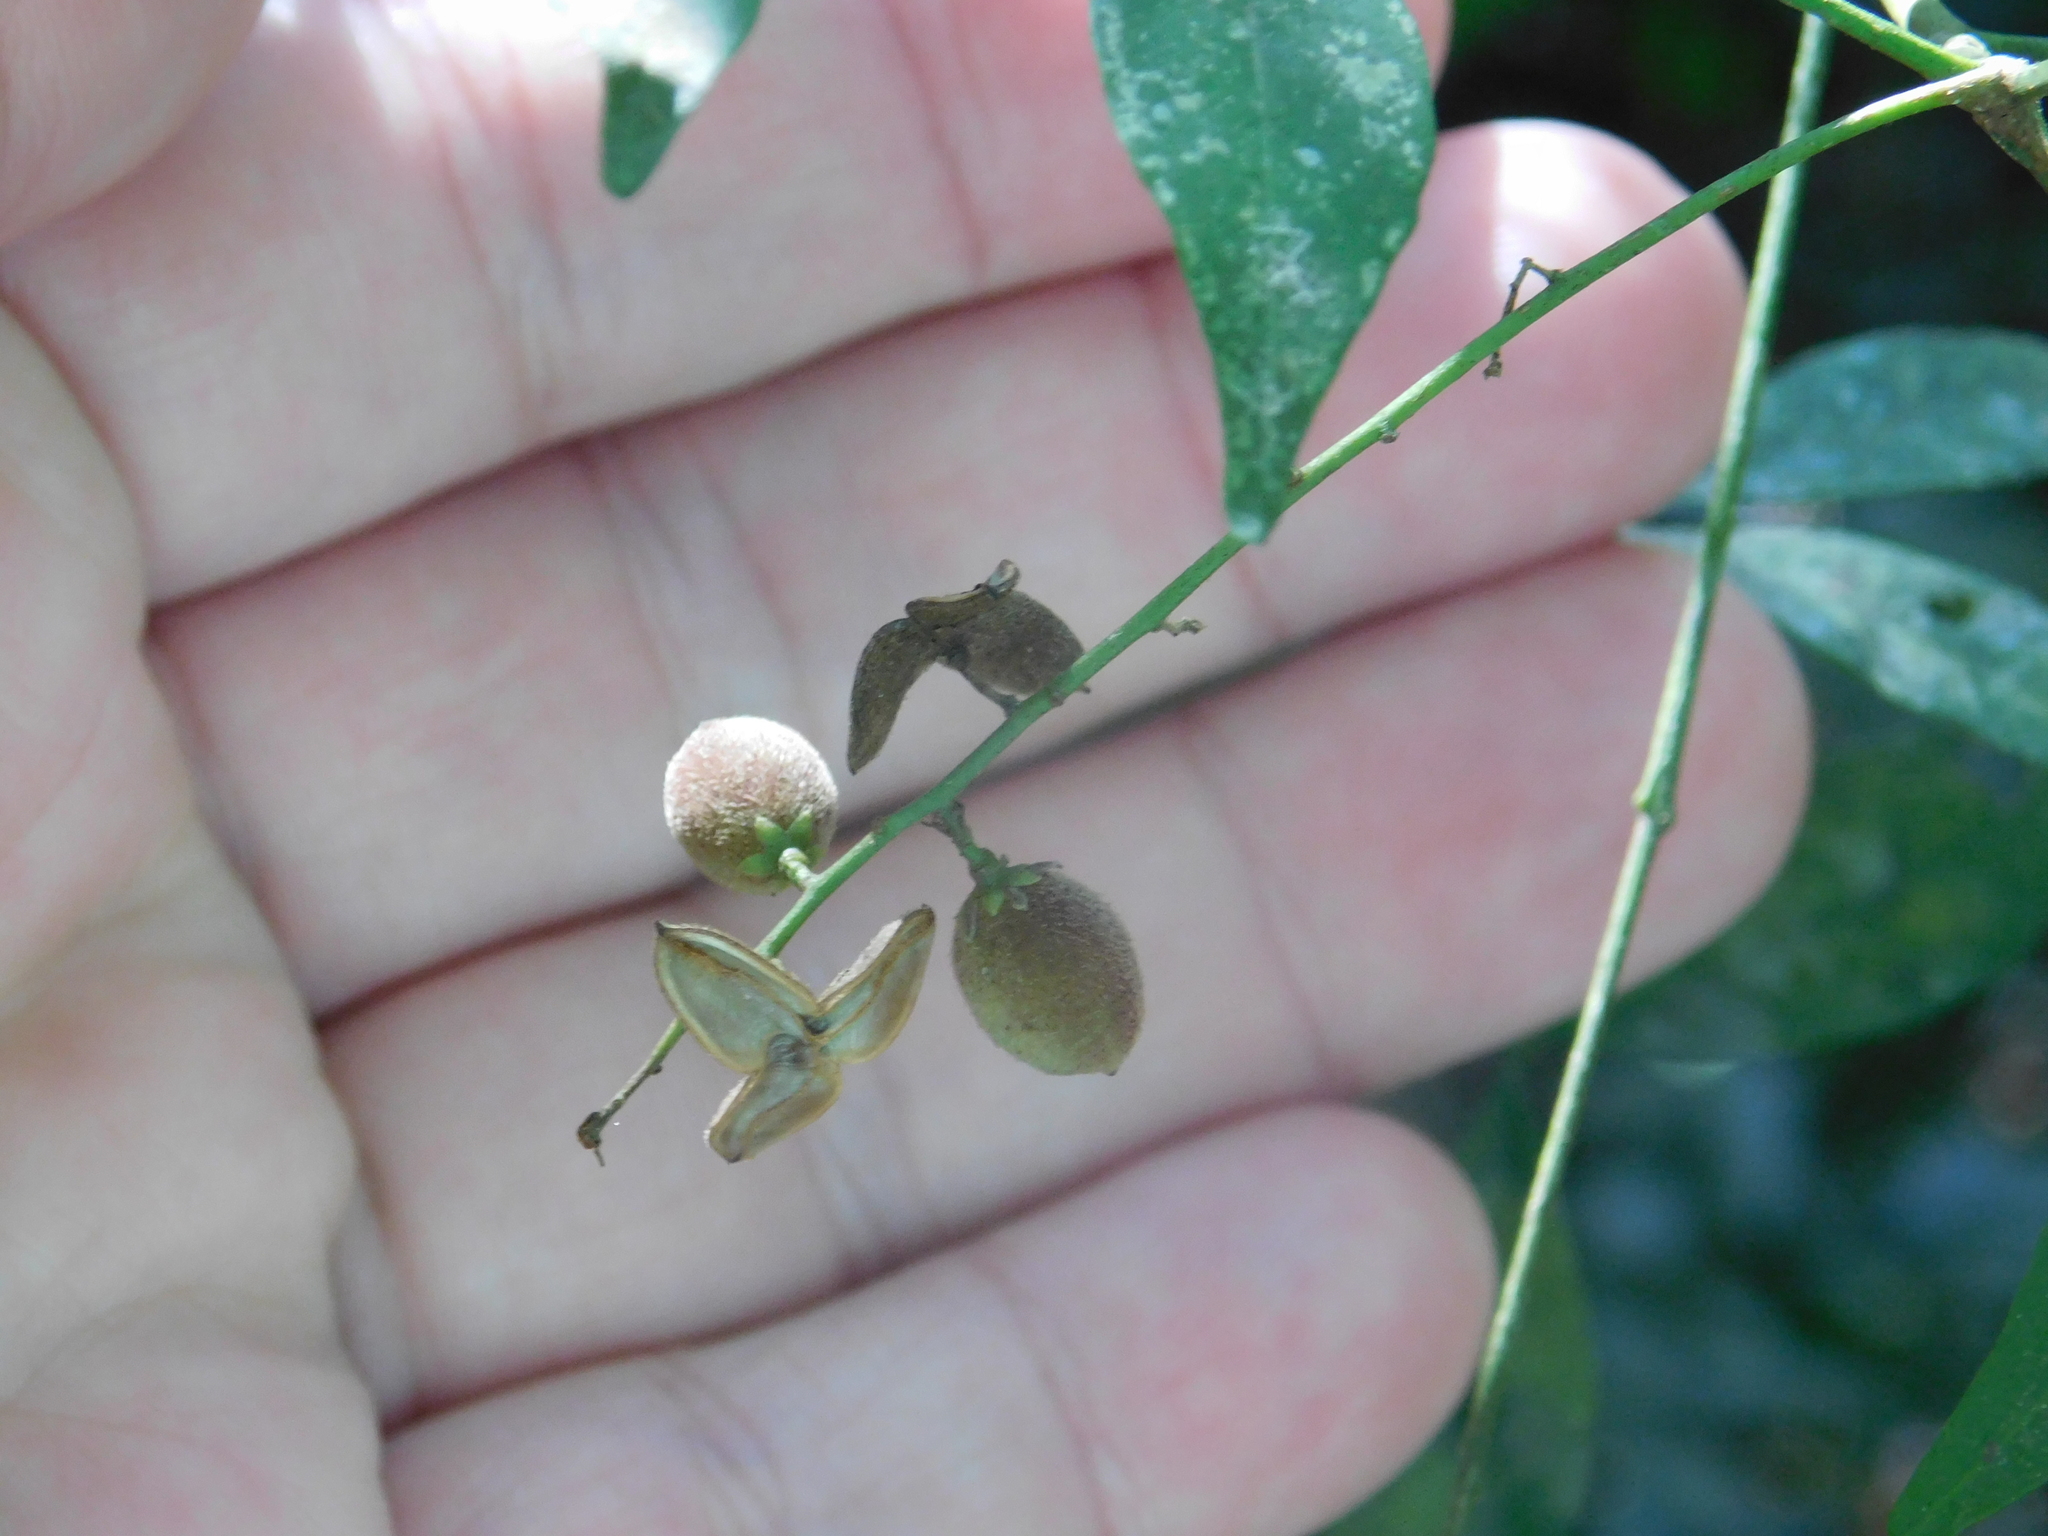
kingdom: Plantae
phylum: Tracheophyta
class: Magnoliopsida
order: Sapindales
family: Meliaceae
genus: Trichilia
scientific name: Trichilia elegans
